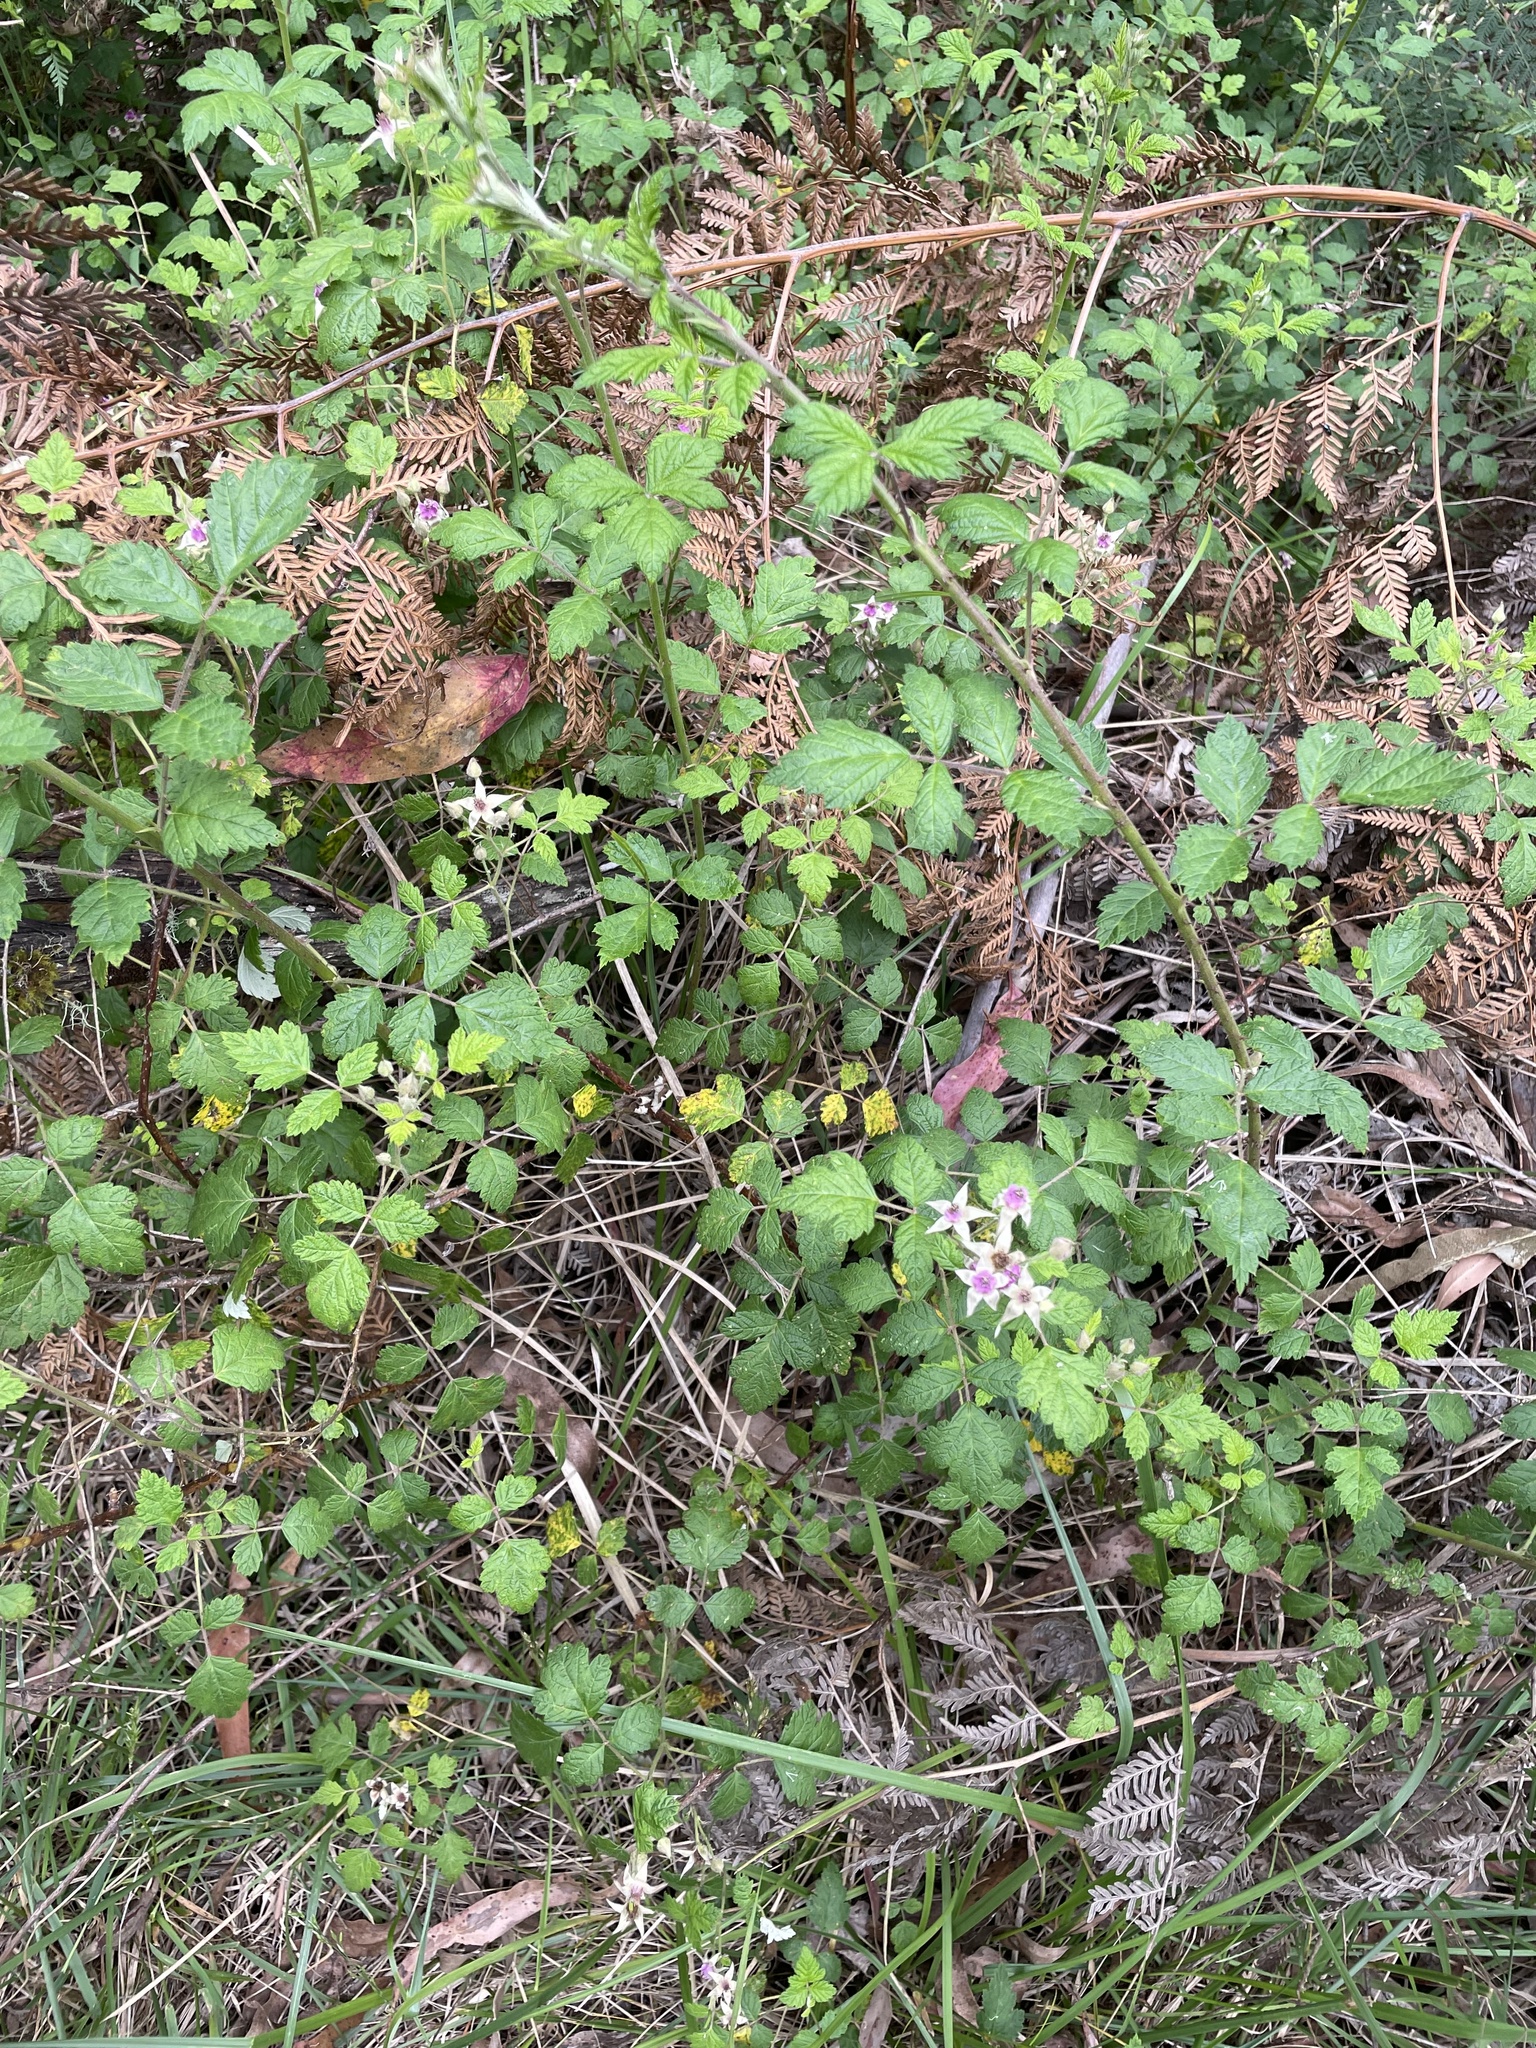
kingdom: Plantae
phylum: Tracheophyta
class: Magnoliopsida
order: Rosales
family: Rosaceae
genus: Rubus
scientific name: Rubus parvifolius
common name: Threeleaf blackberry
